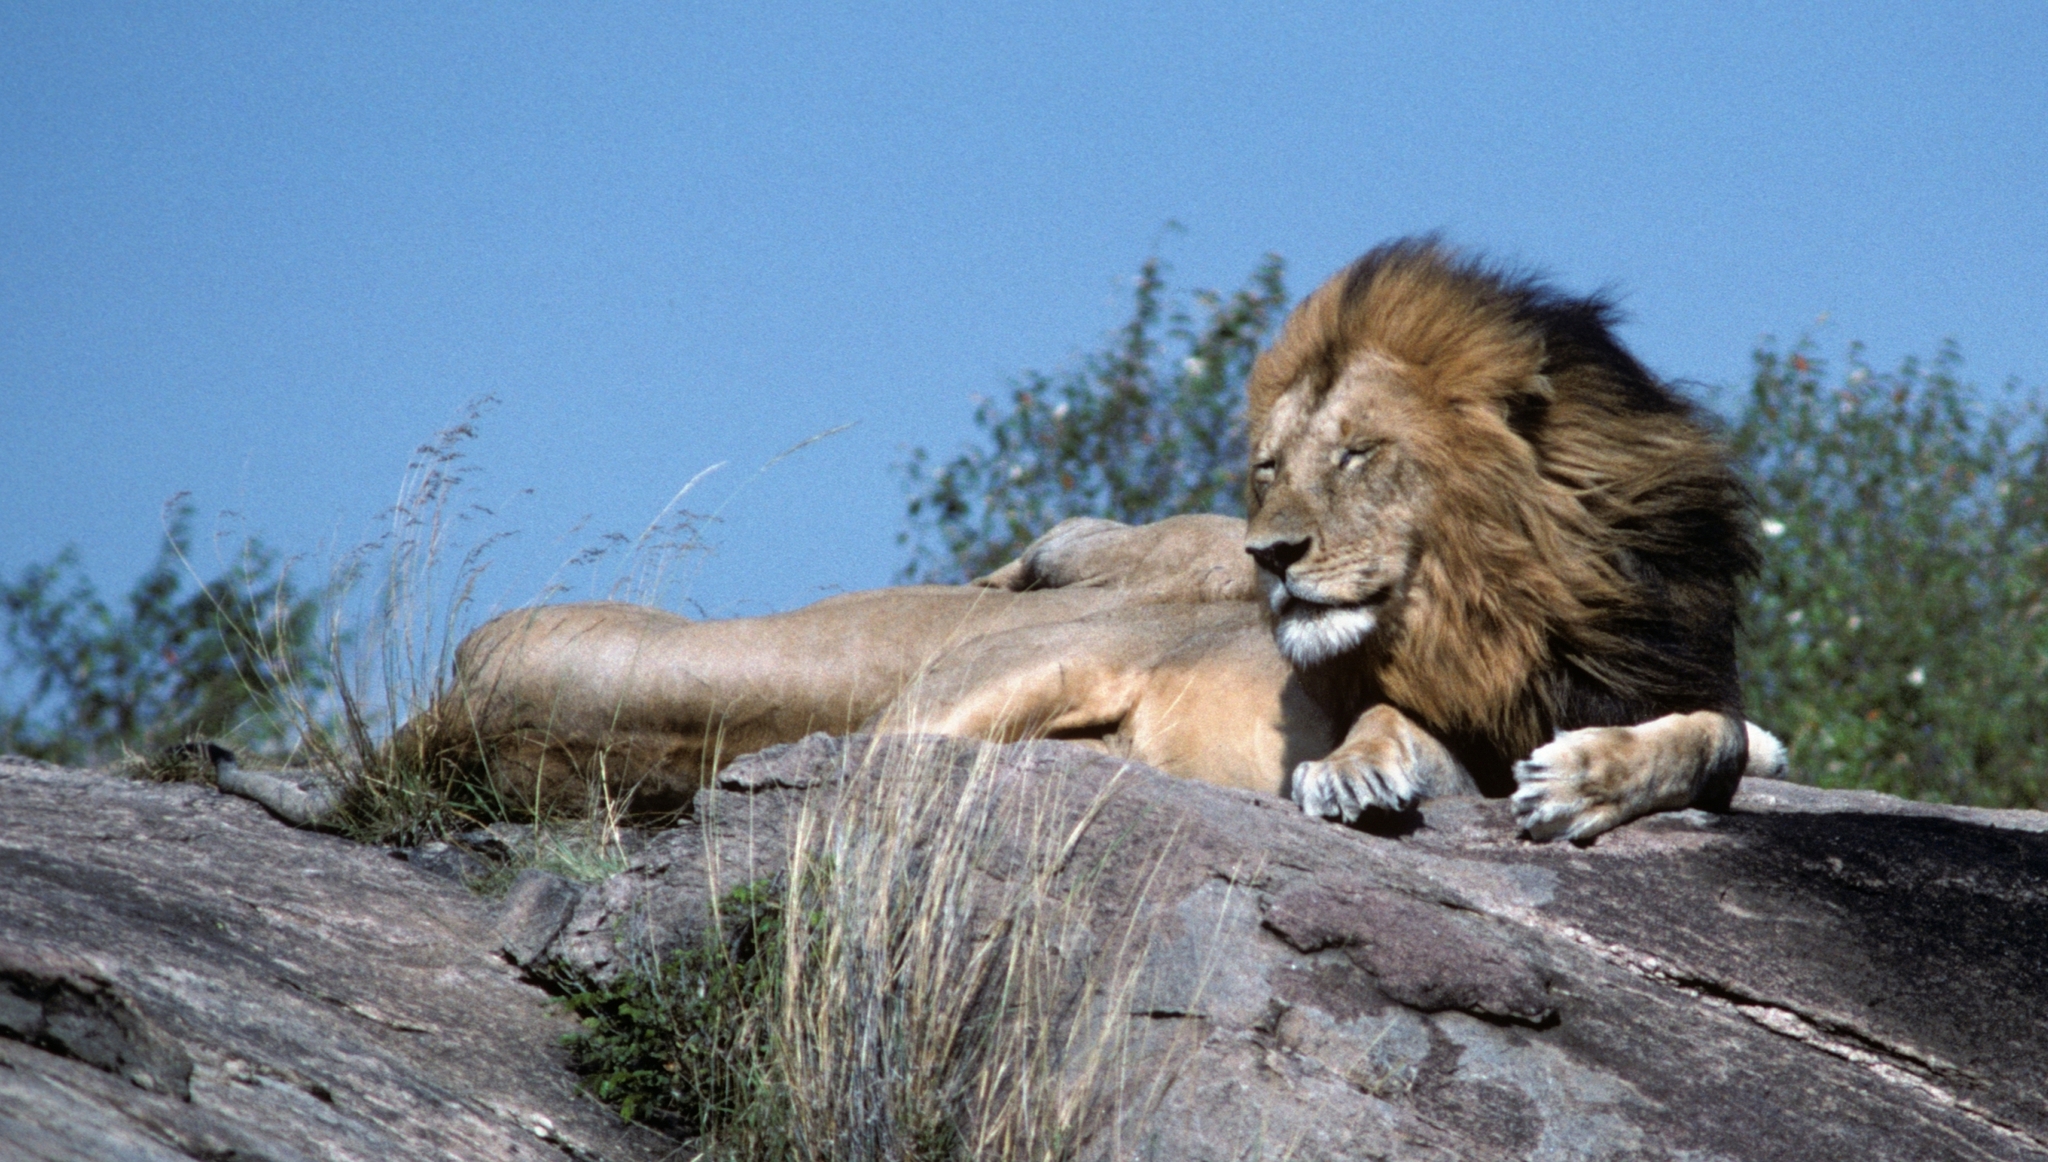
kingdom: Animalia
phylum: Chordata
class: Mammalia
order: Carnivora
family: Felidae
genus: Panthera
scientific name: Panthera leo
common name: Lion
